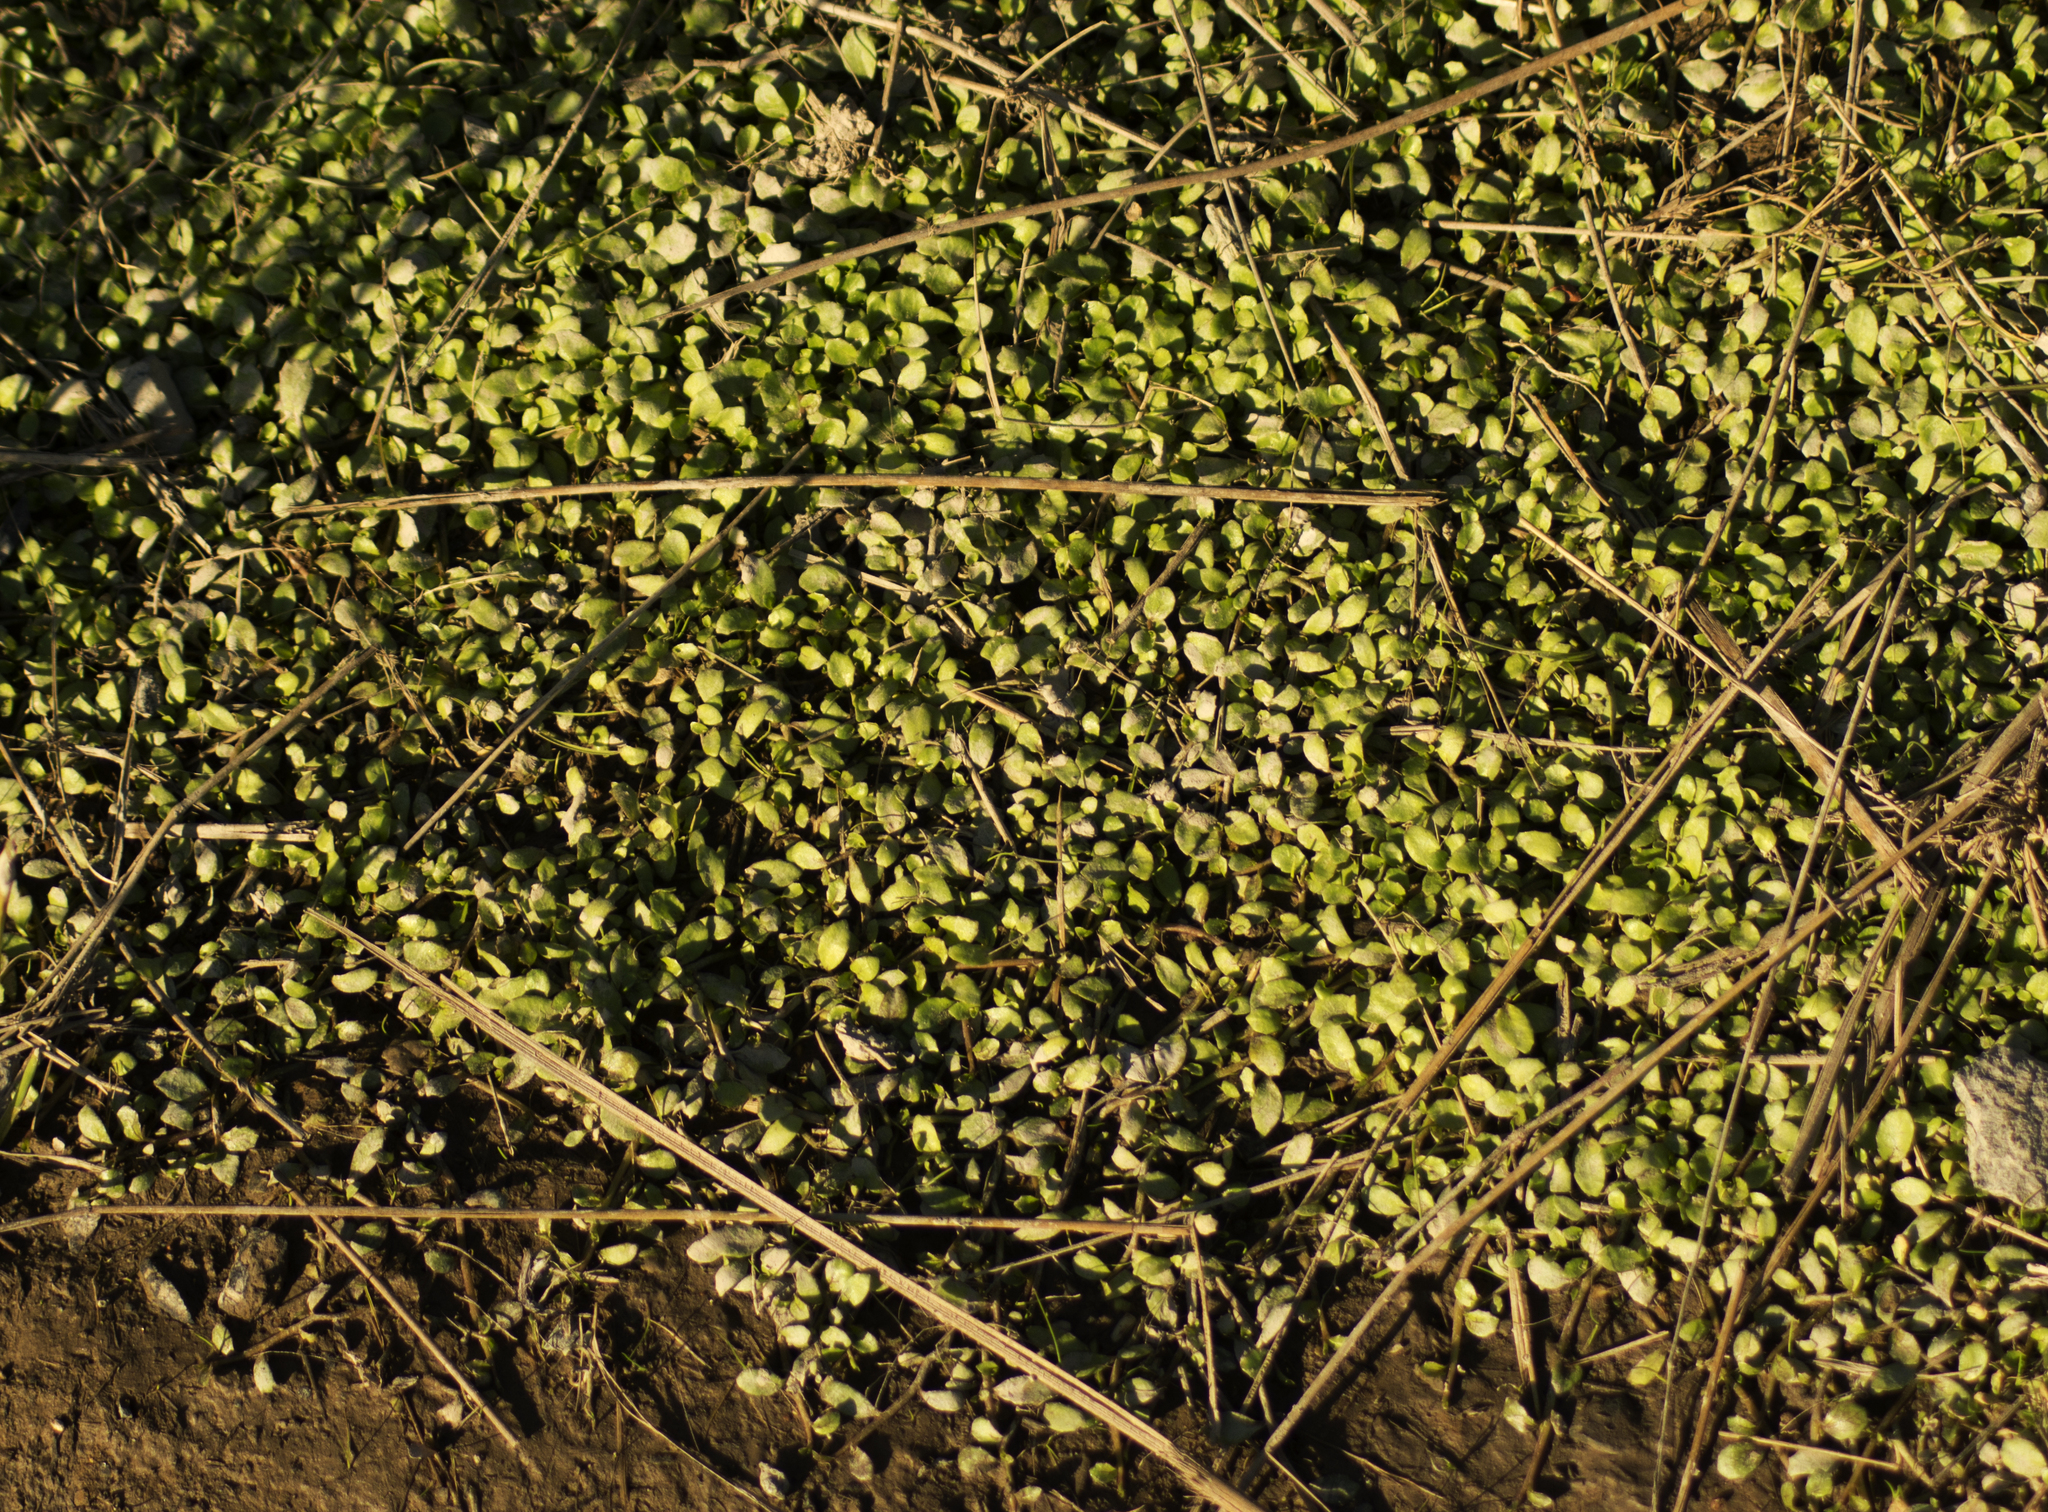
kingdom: Plantae
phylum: Tracheophyta
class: Magnoliopsida
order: Asterales
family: Campanulaceae
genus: Isotoma
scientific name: Isotoma fluviatilis
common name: Isotoma
